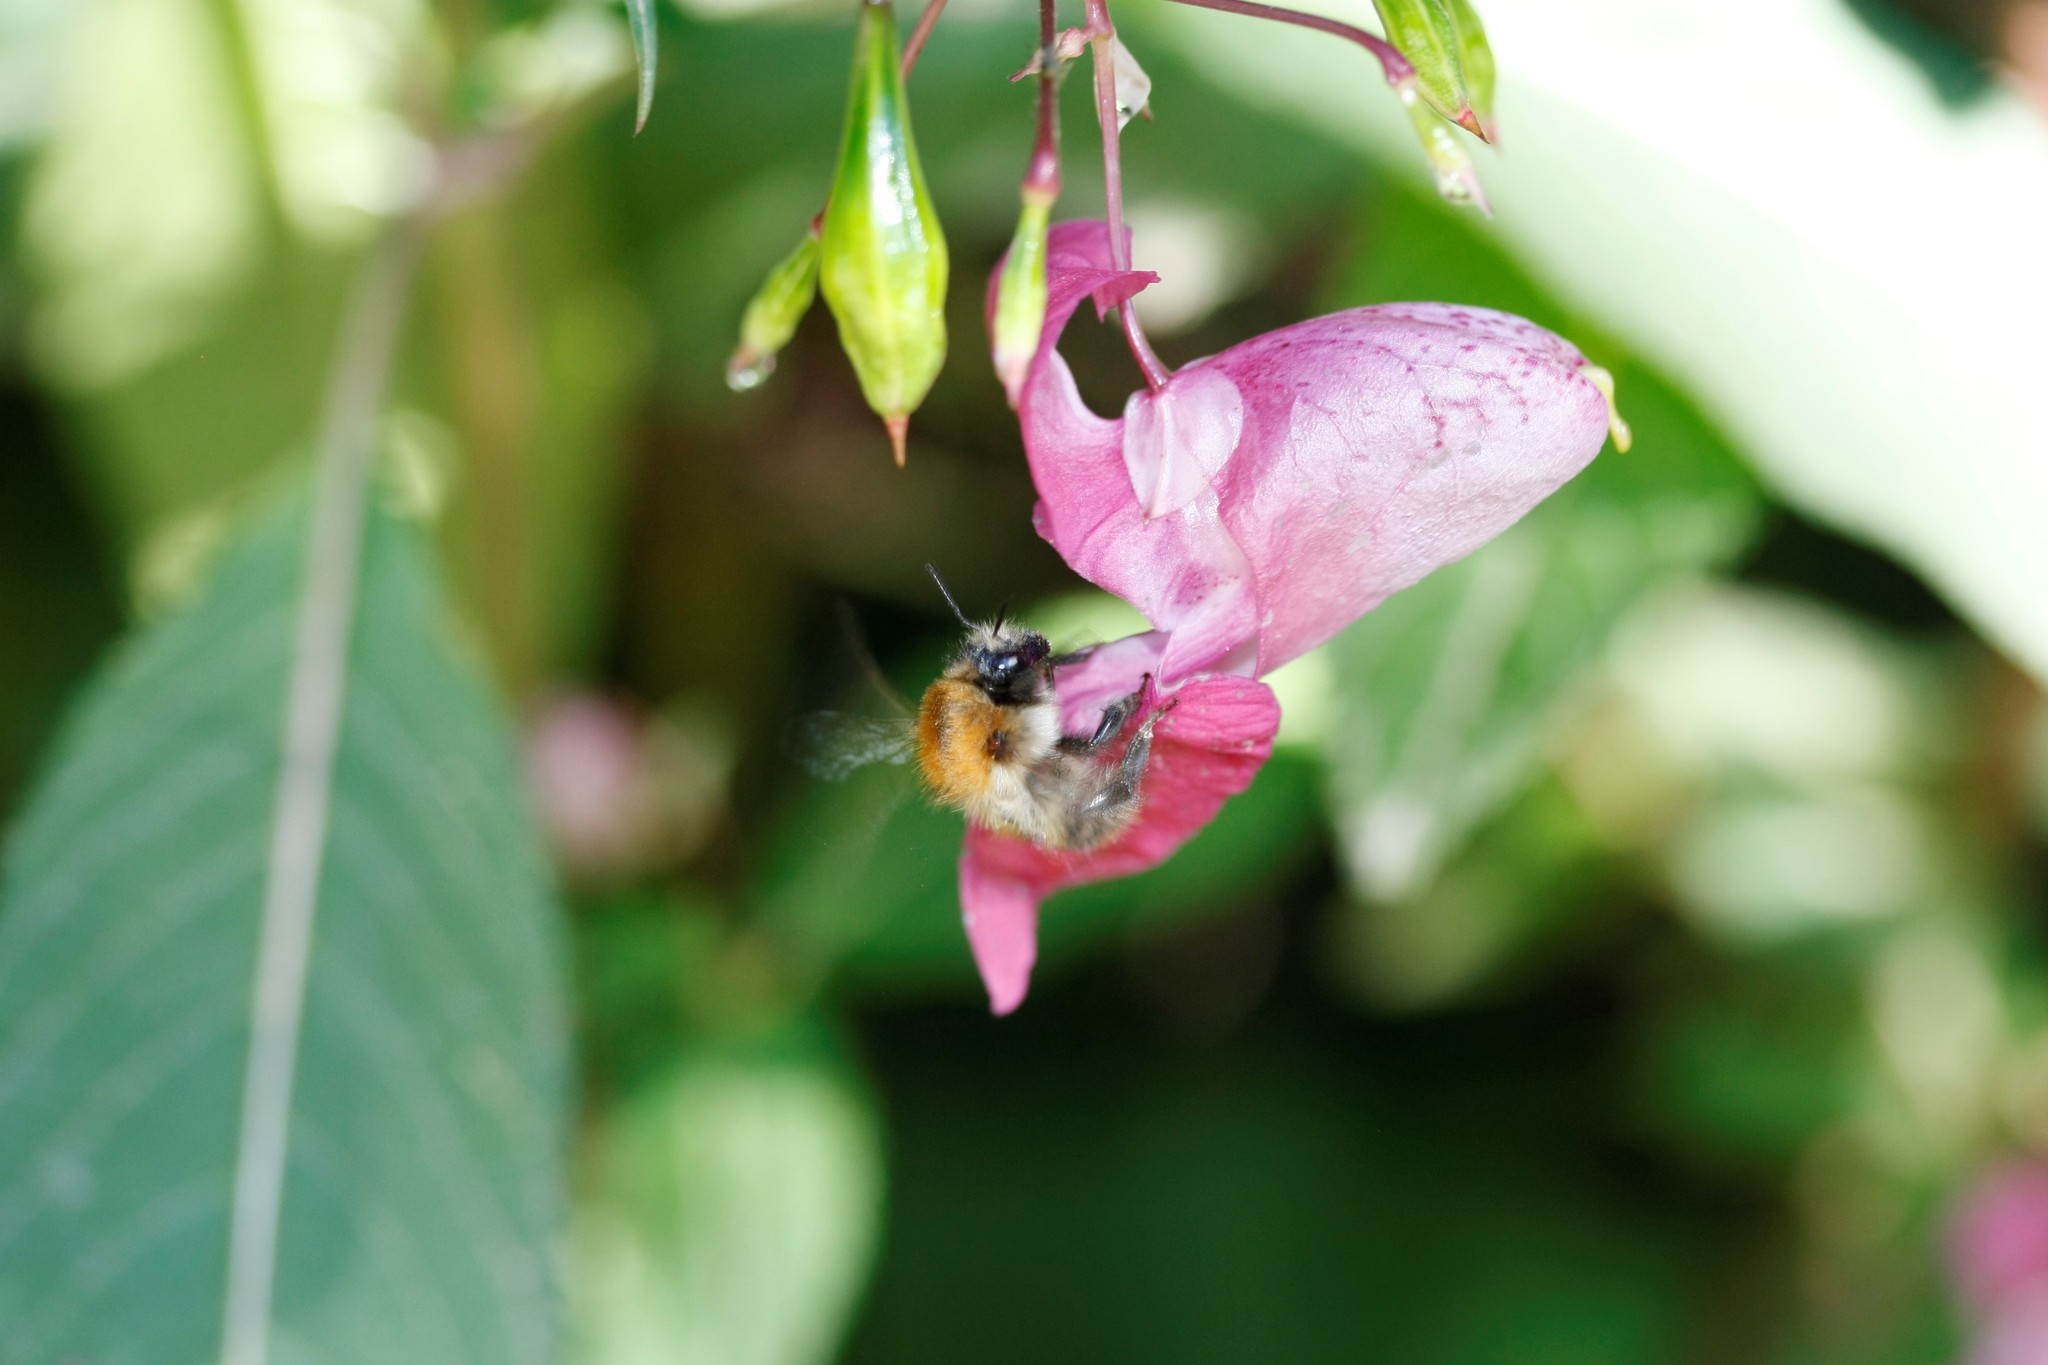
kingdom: Animalia
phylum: Arthropoda
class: Insecta
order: Hymenoptera
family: Apidae
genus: Bombus
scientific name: Bombus pascuorum
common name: Common carder bee
